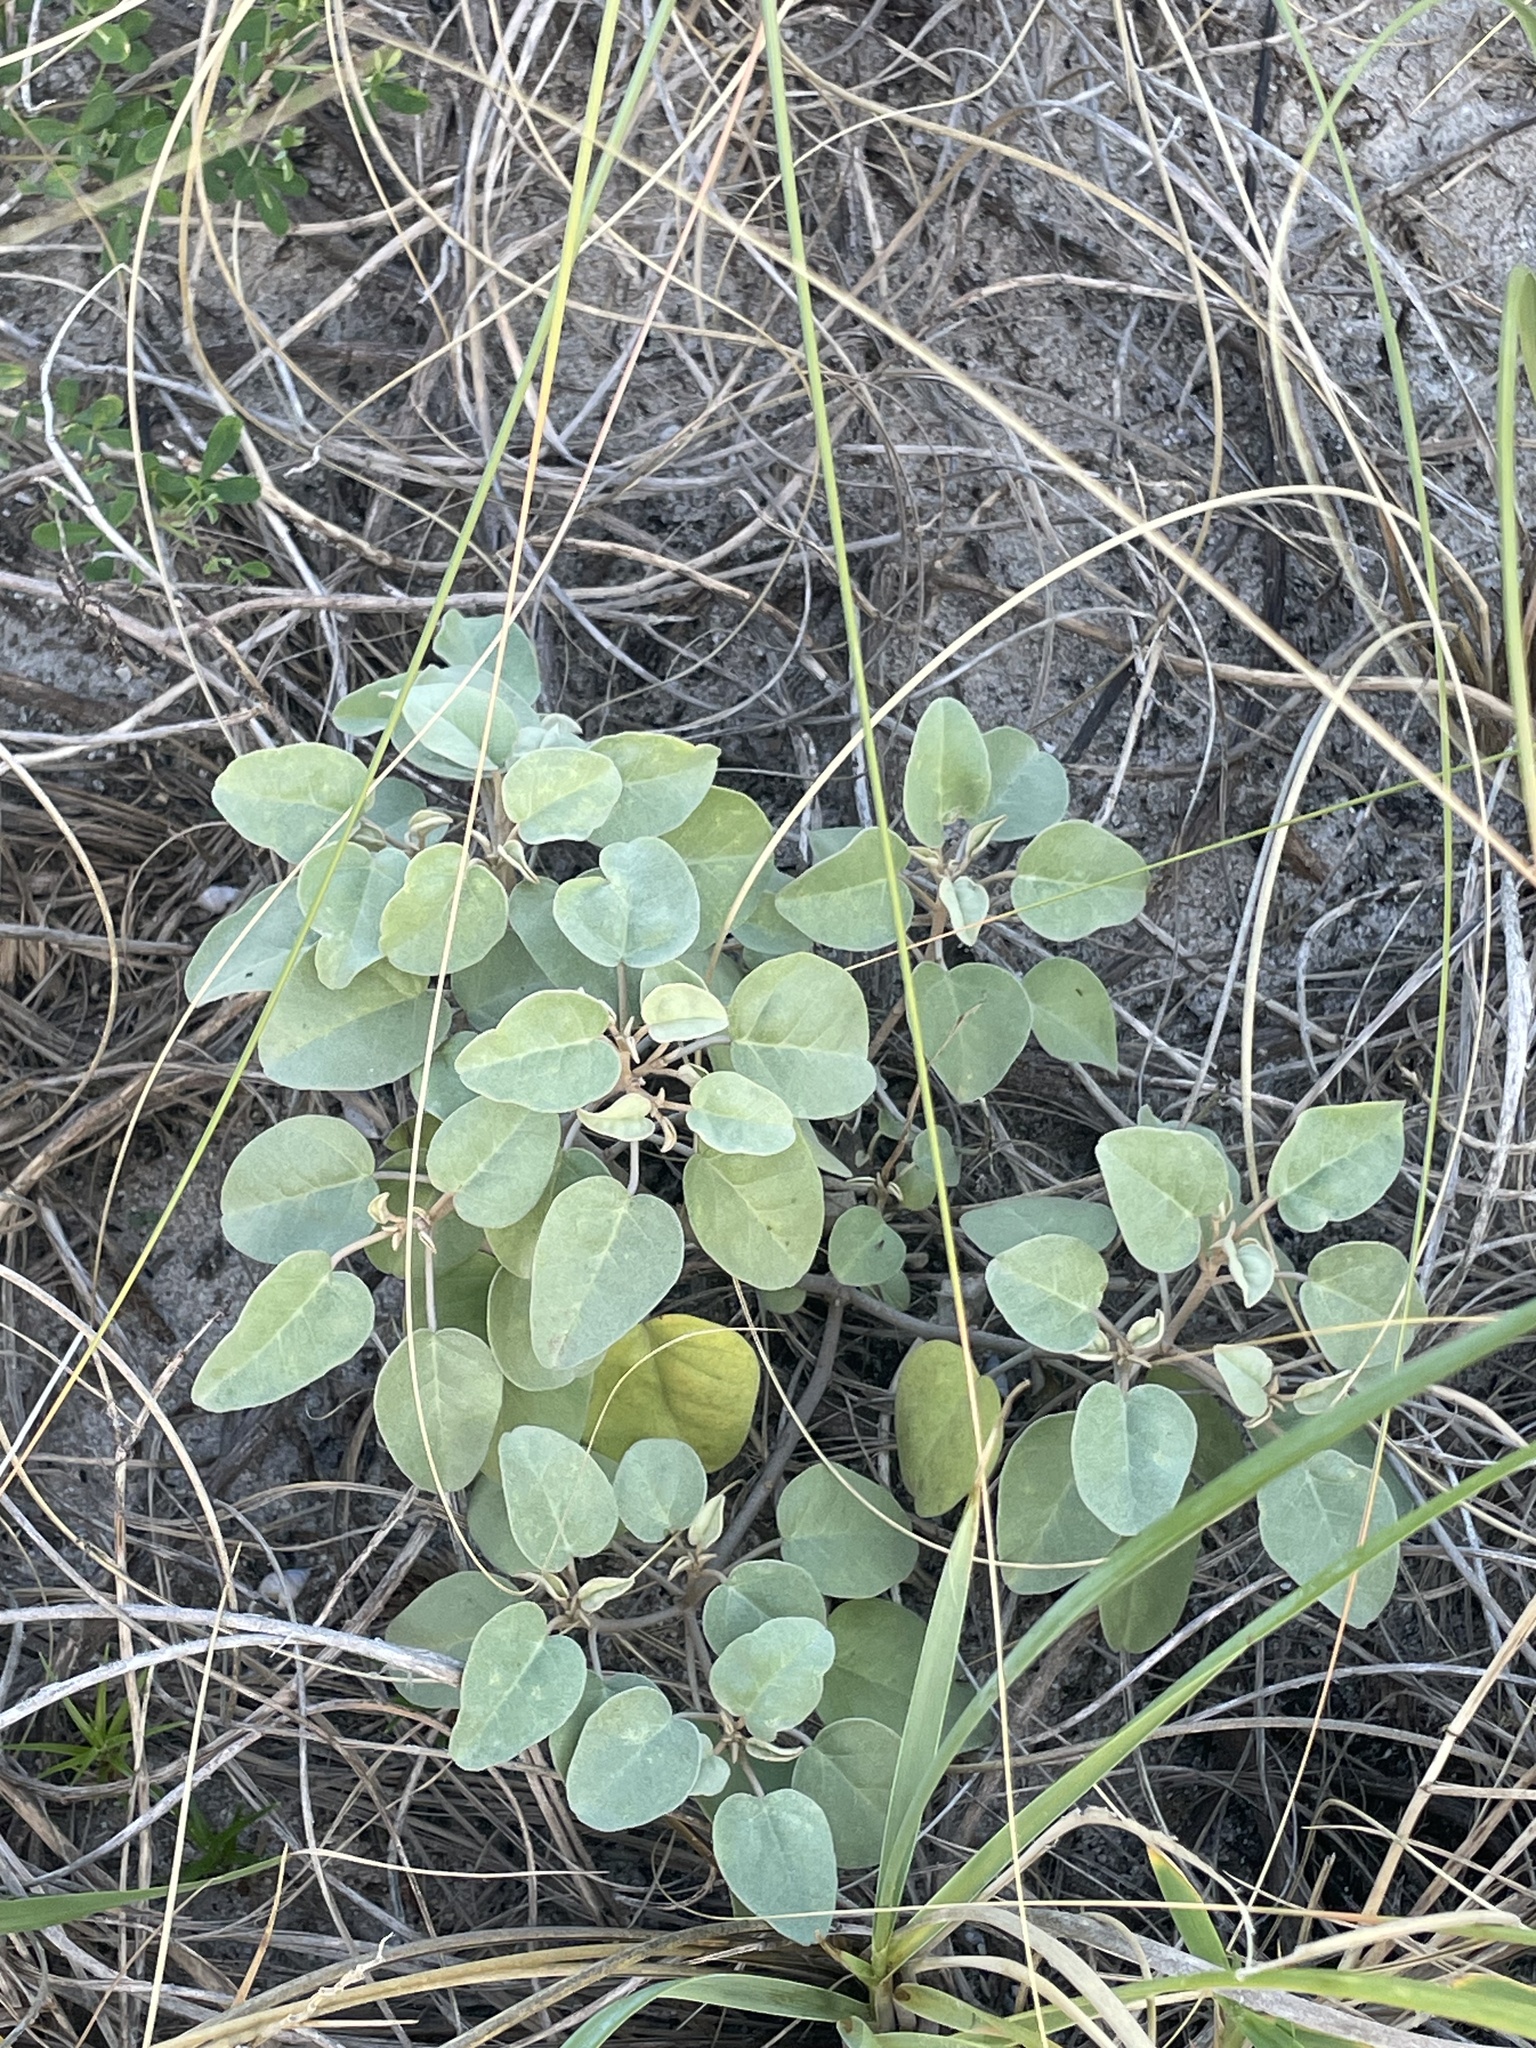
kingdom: Plantae
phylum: Tracheophyta
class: Magnoliopsida
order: Malpighiales
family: Euphorbiaceae
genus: Croton
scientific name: Croton punctatus
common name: Beach-tea
